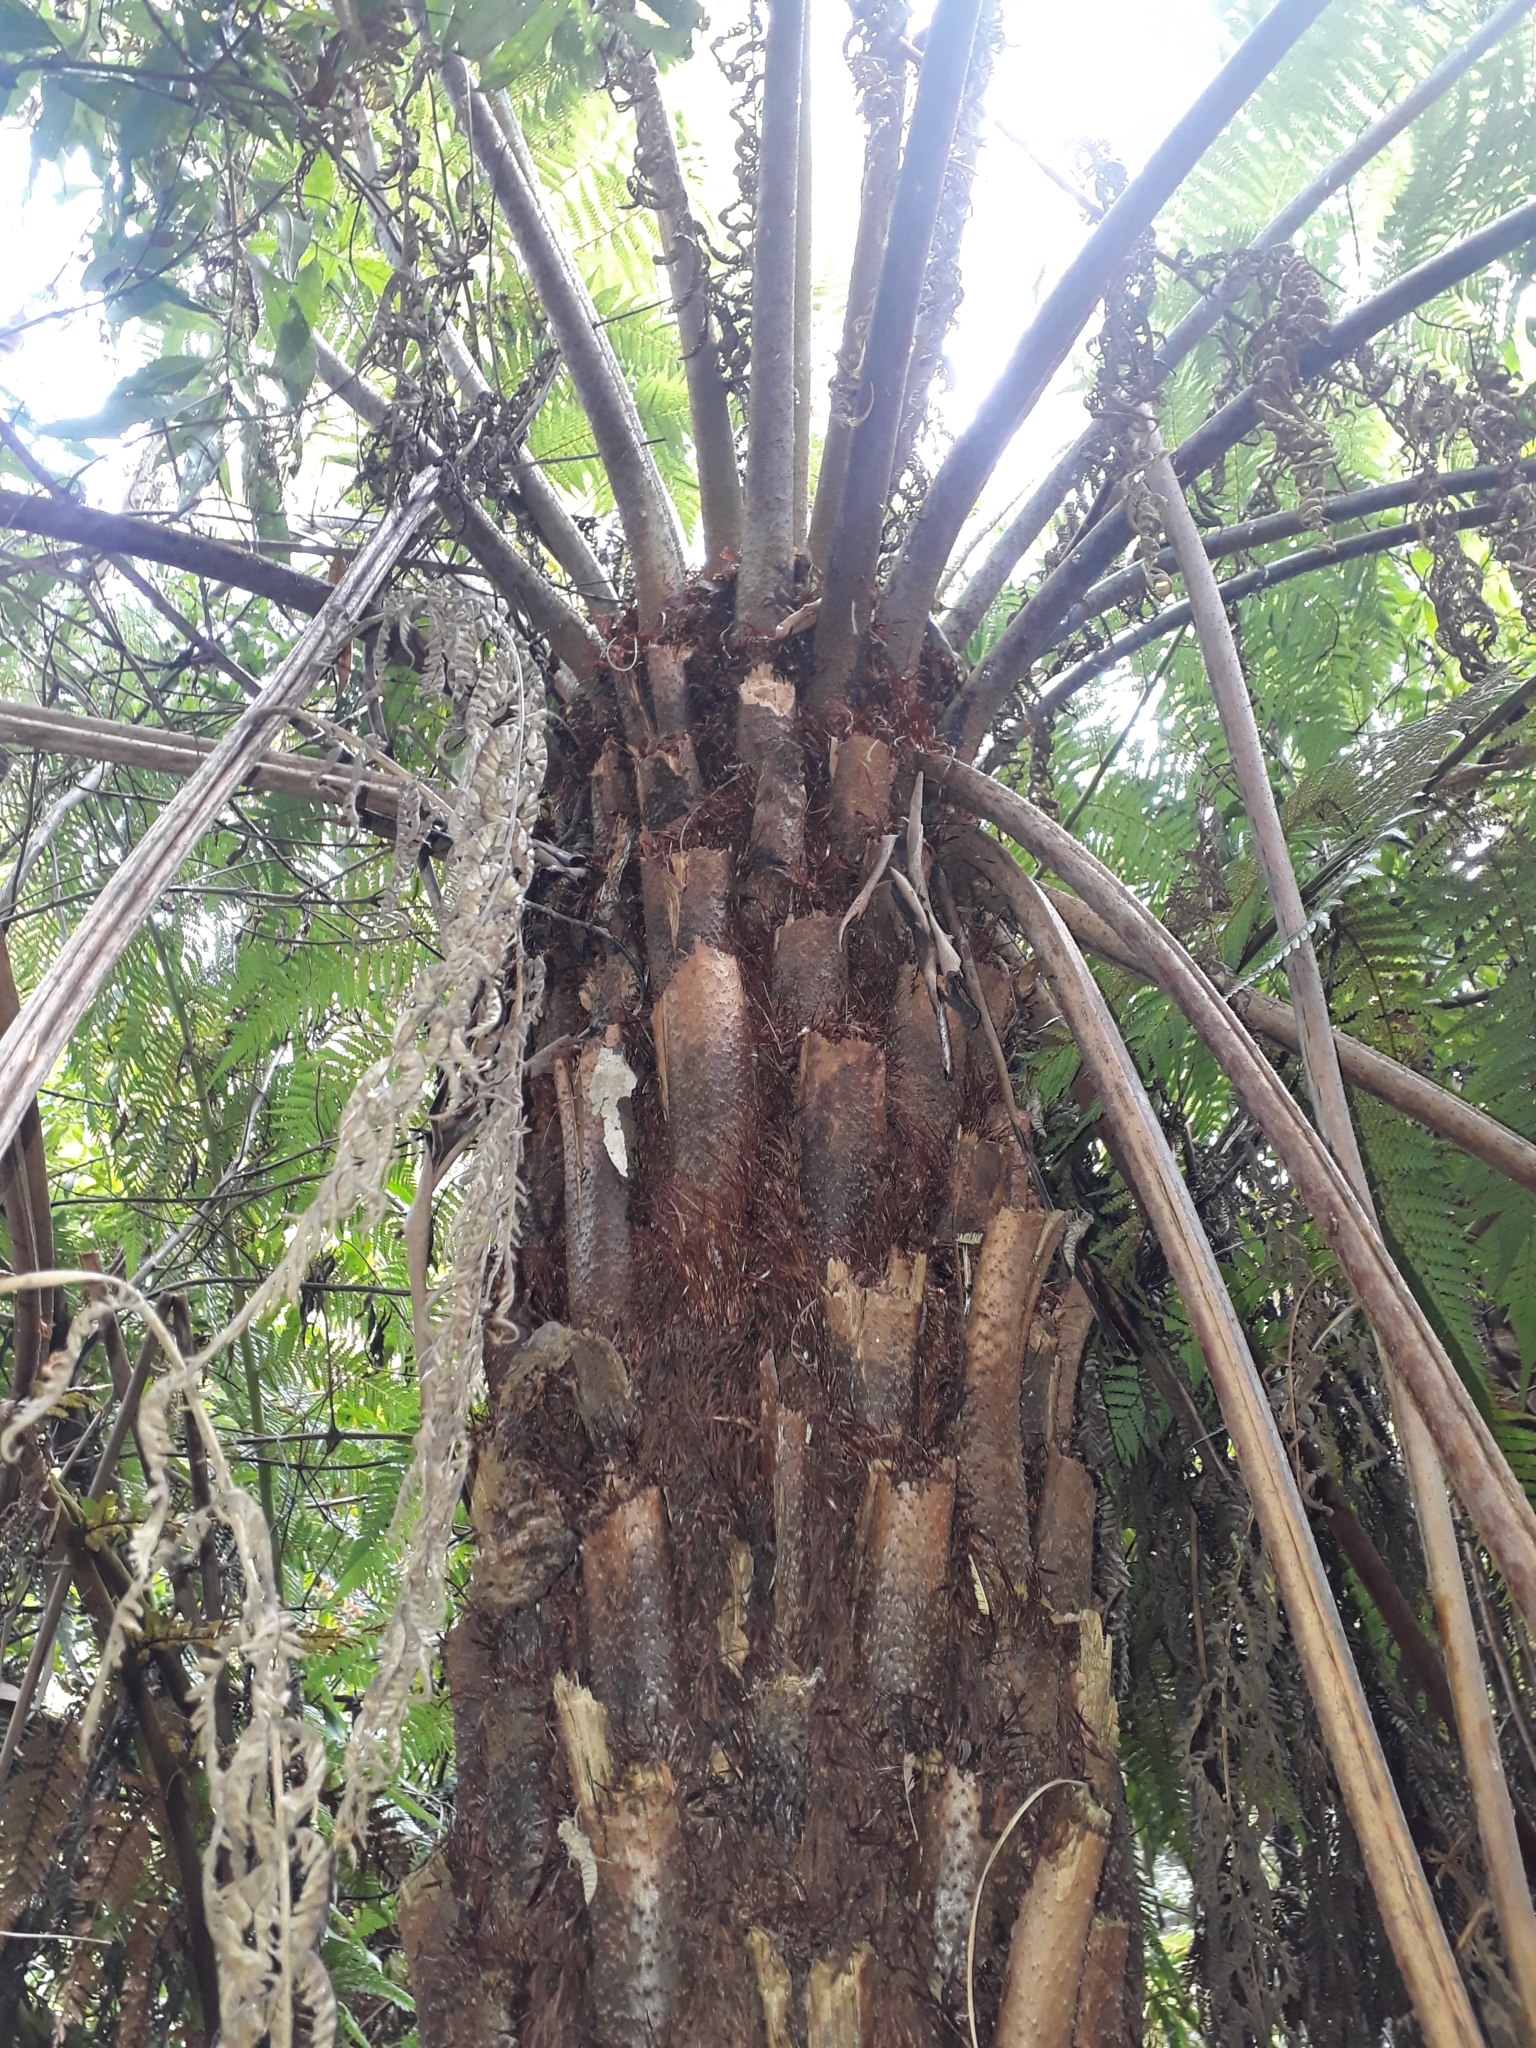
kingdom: Plantae
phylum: Tracheophyta
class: Polypodiopsida
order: Cyatheales
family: Cyatheaceae
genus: Alsophila
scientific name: Alsophila australis
